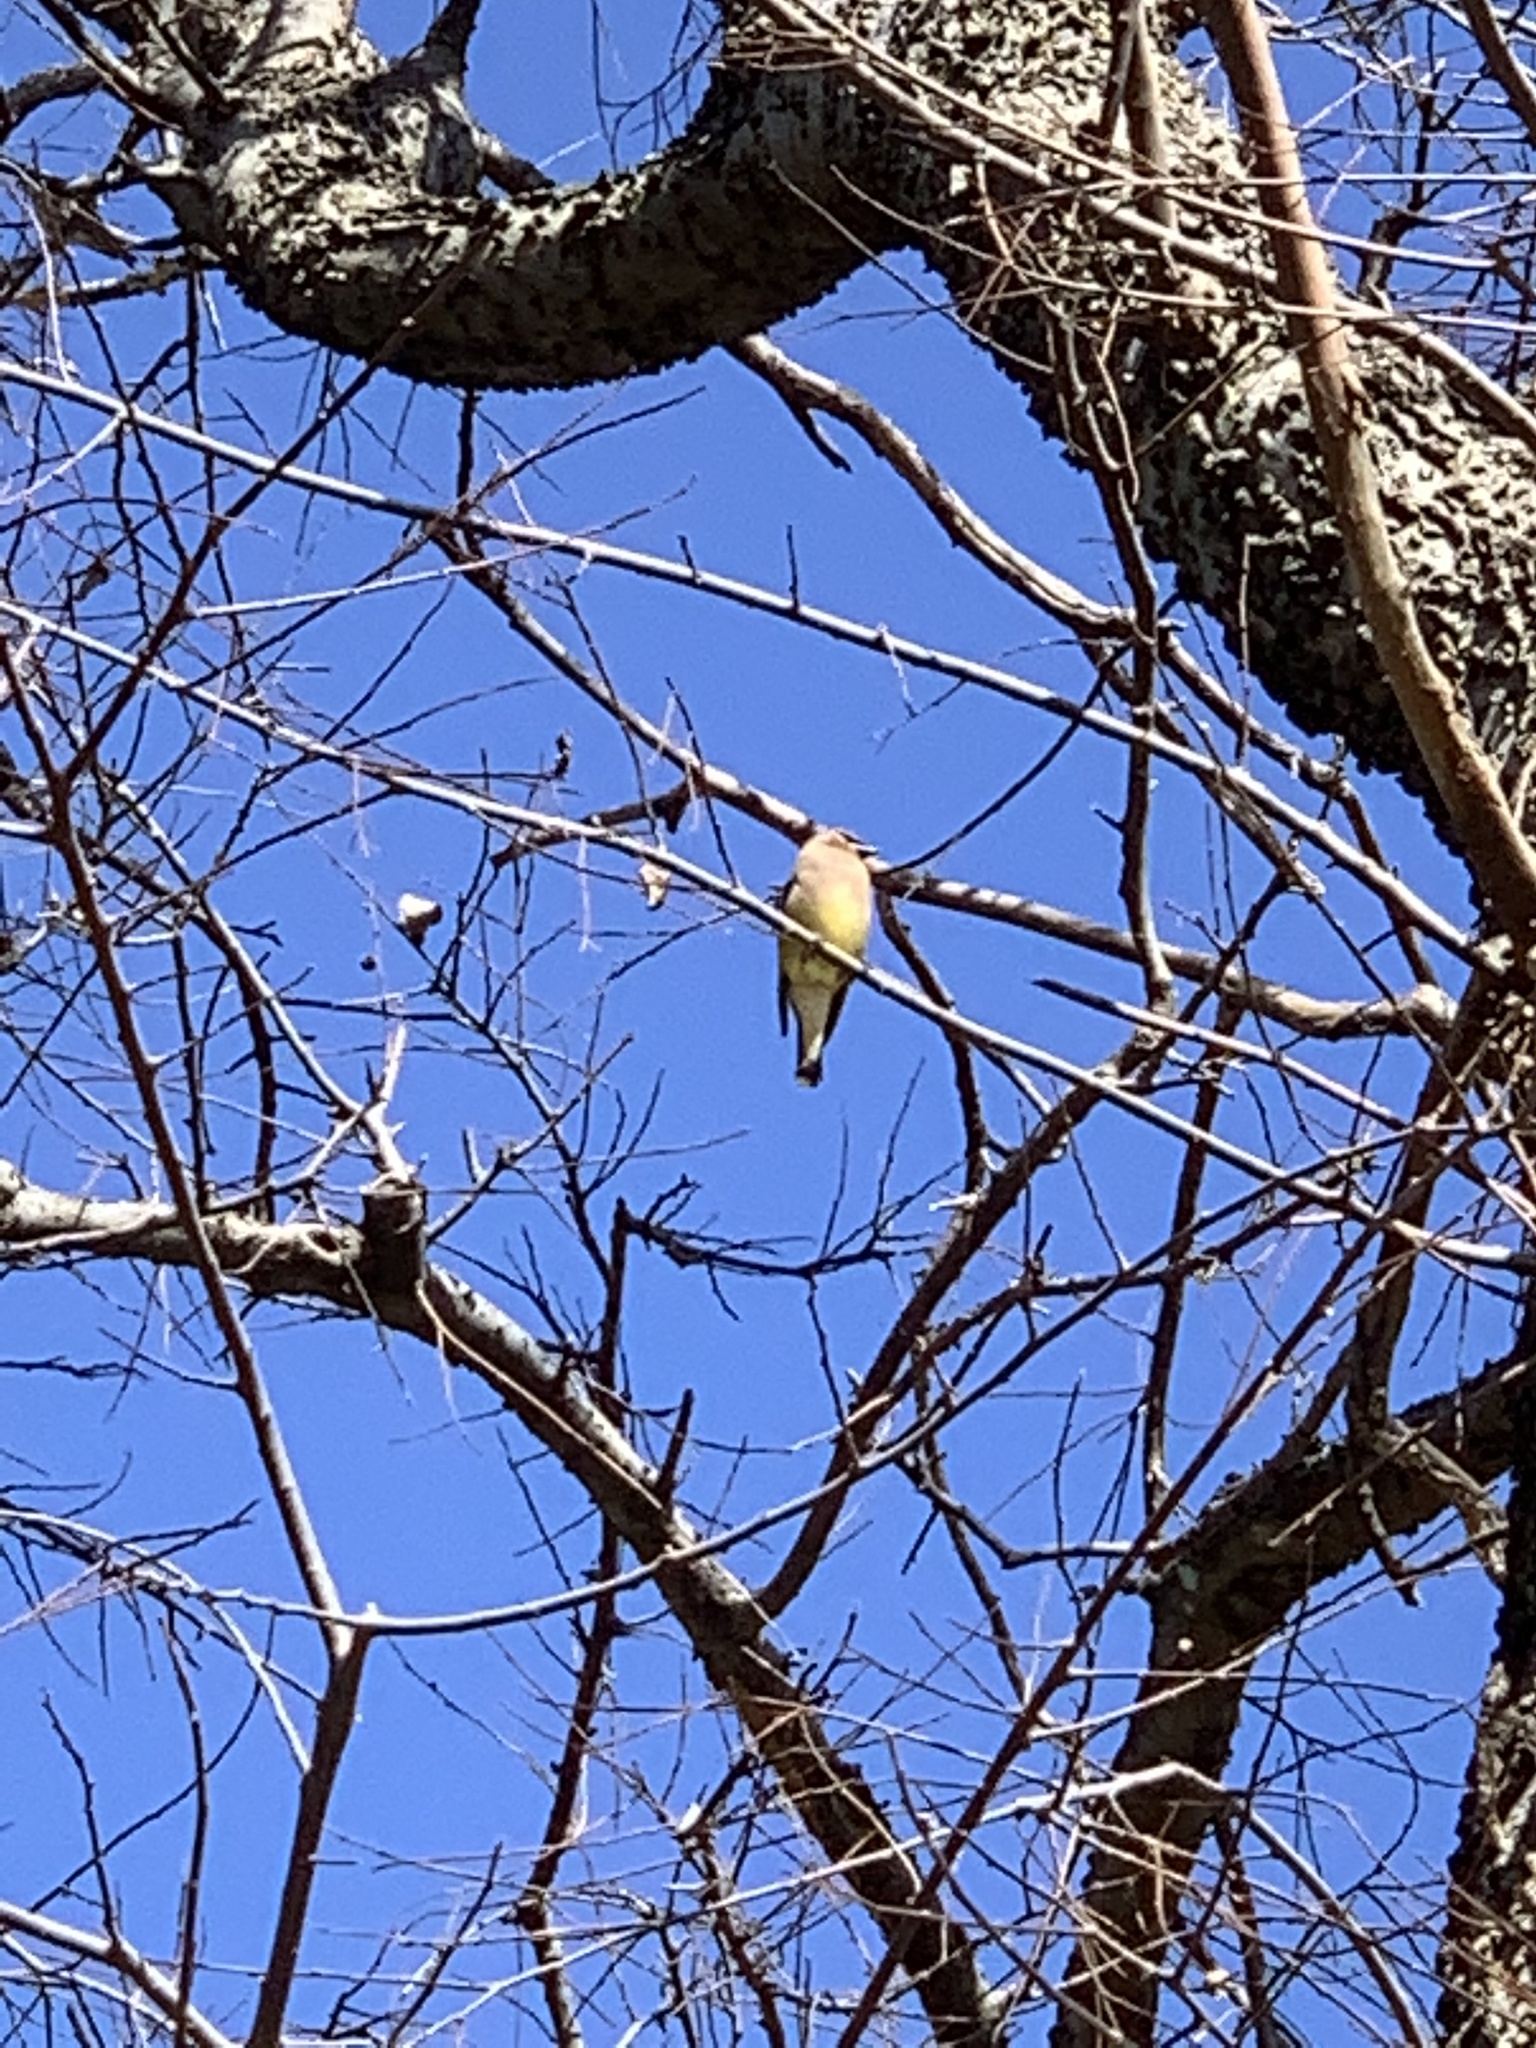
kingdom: Animalia
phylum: Chordata
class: Aves
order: Passeriformes
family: Bombycillidae
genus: Bombycilla
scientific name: Bombycilla cedrorum
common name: Cedar waxwing
